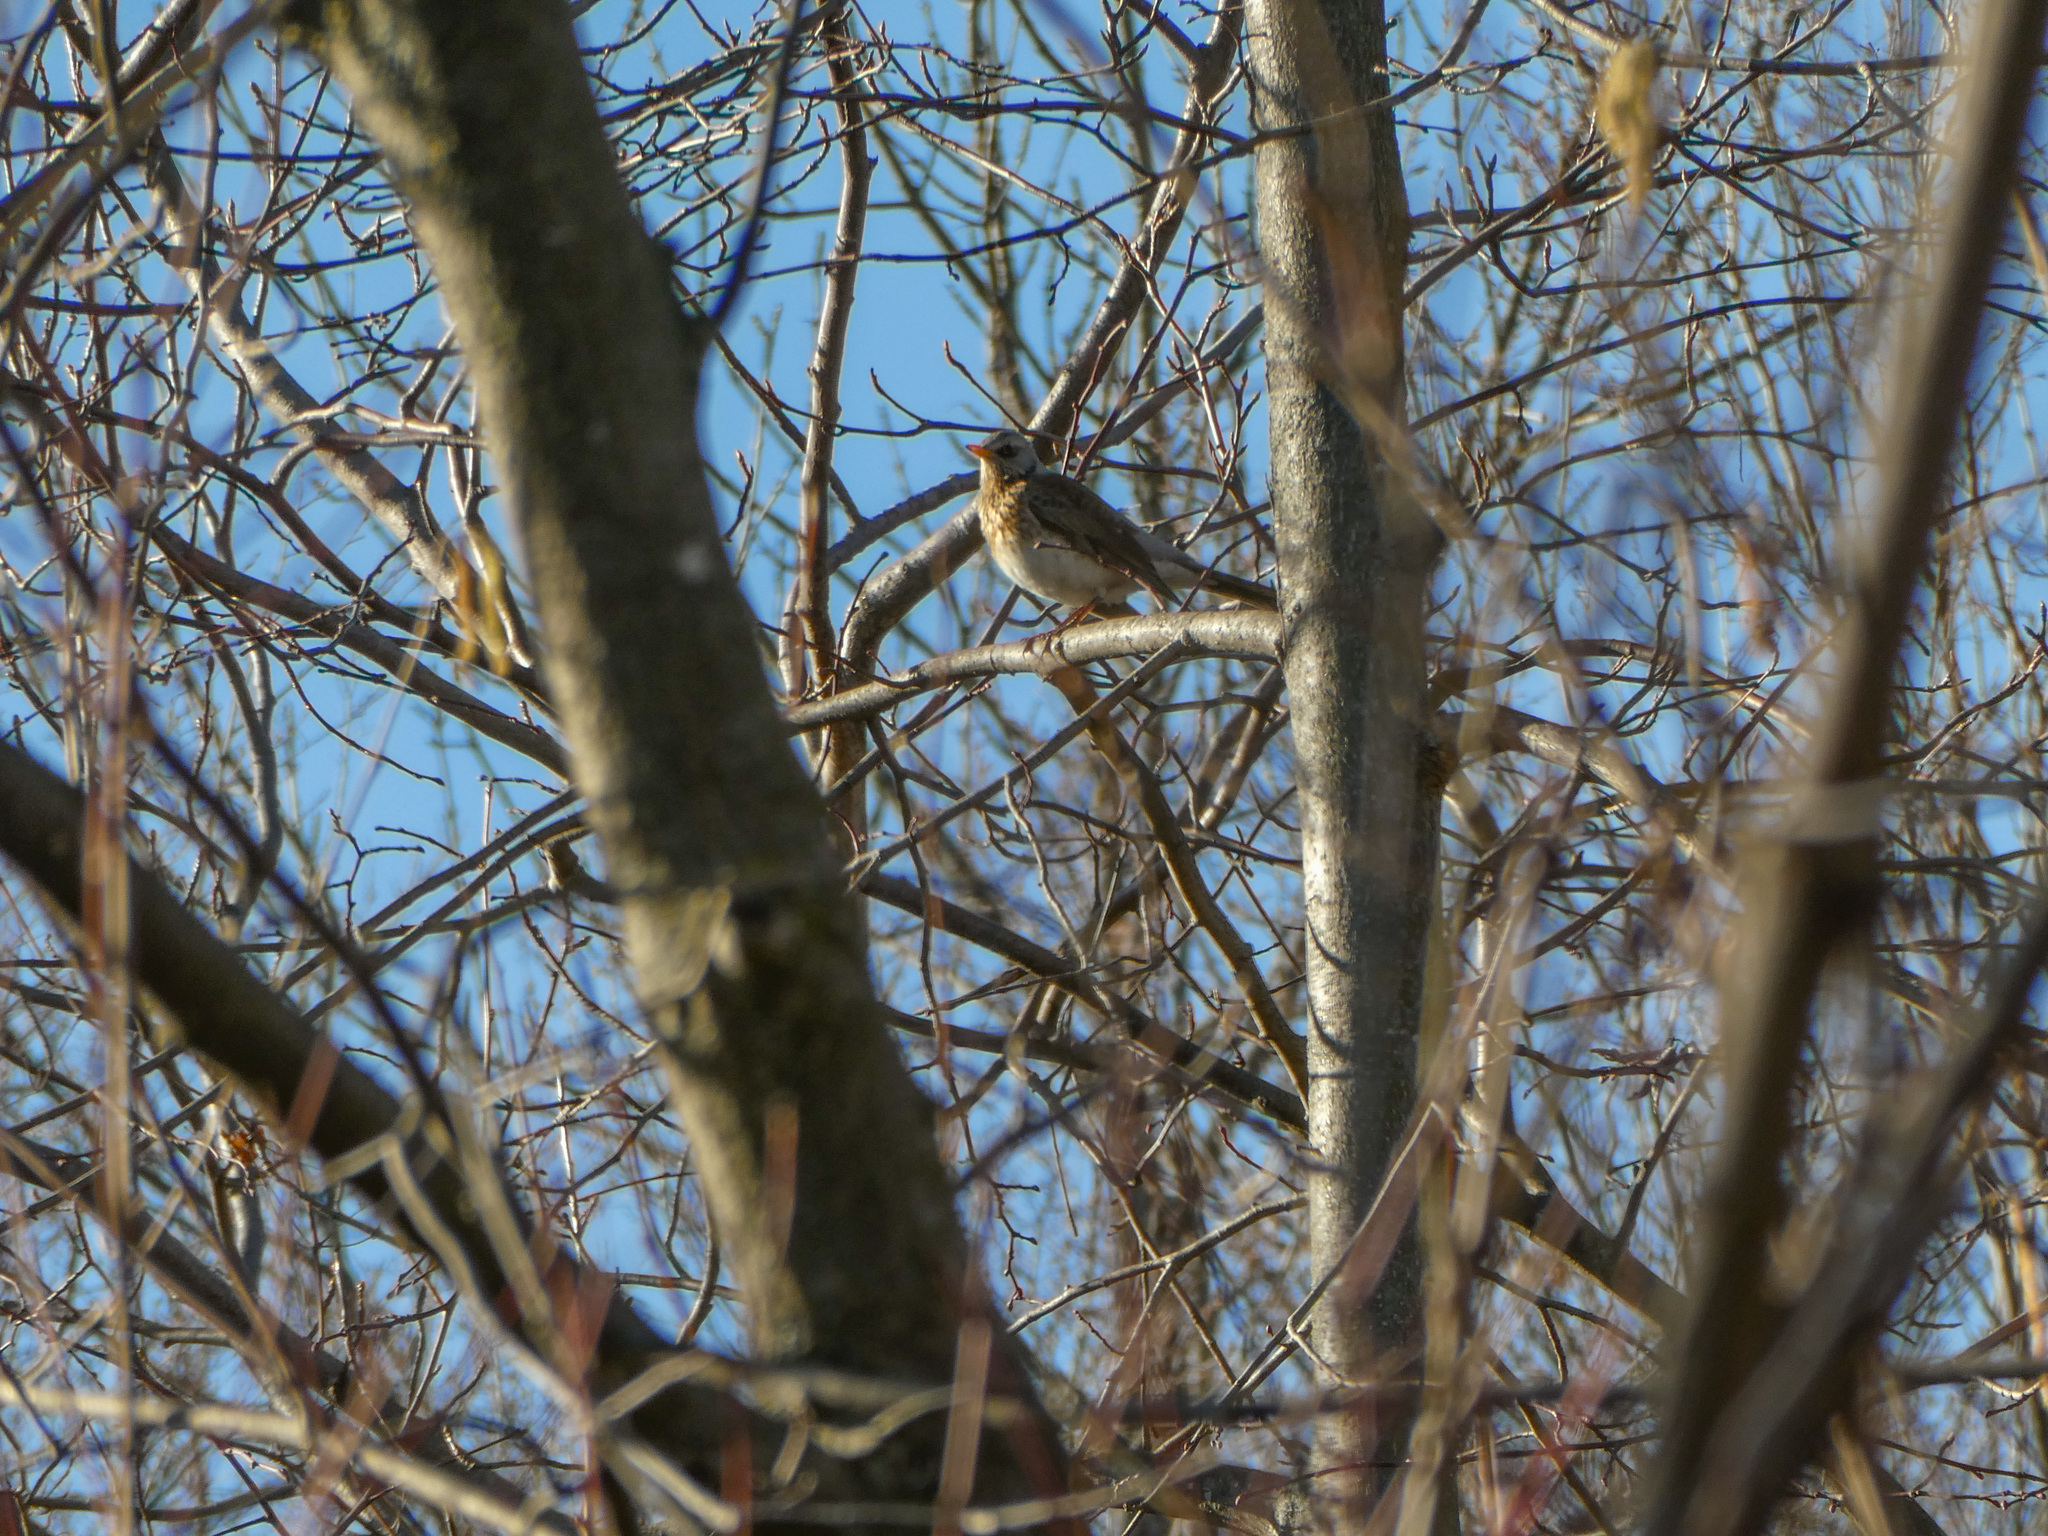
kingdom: Animalia
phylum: Chordata
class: Aves
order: Passeriformes
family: Turdidae
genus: Turdus
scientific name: Turdus pilaris
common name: Fieldfare
